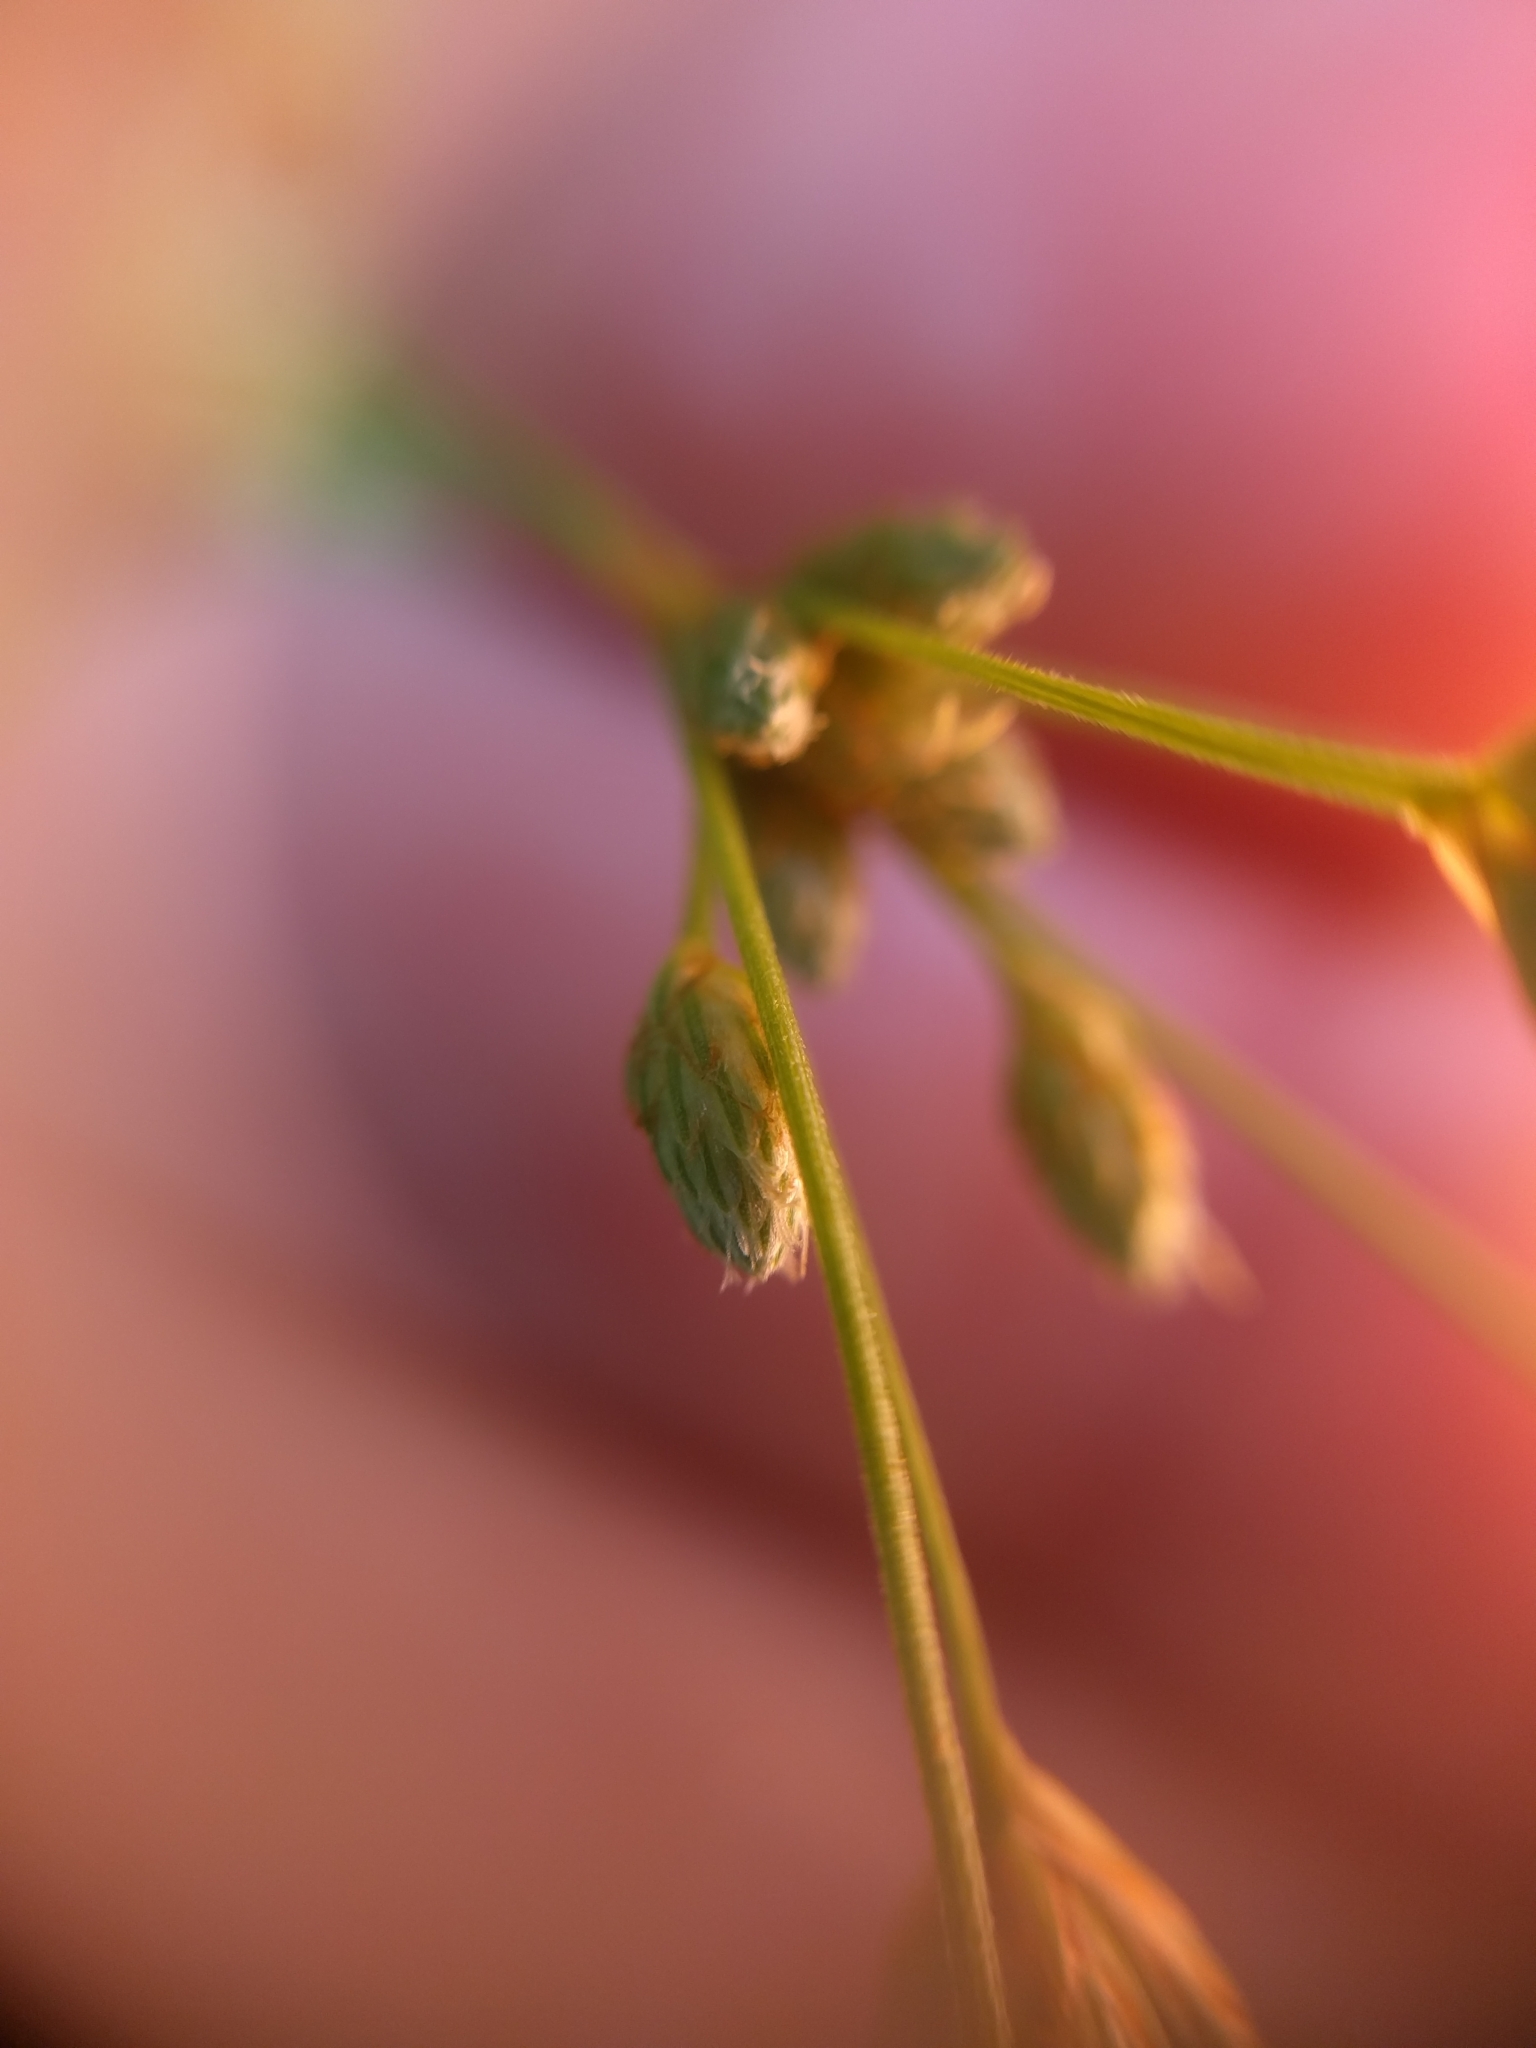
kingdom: Plantae
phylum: Tracheophyta
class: Liliopsida
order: Poales
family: Juncaceae
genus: Juncus
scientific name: Juncus effusus
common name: Soft rush
